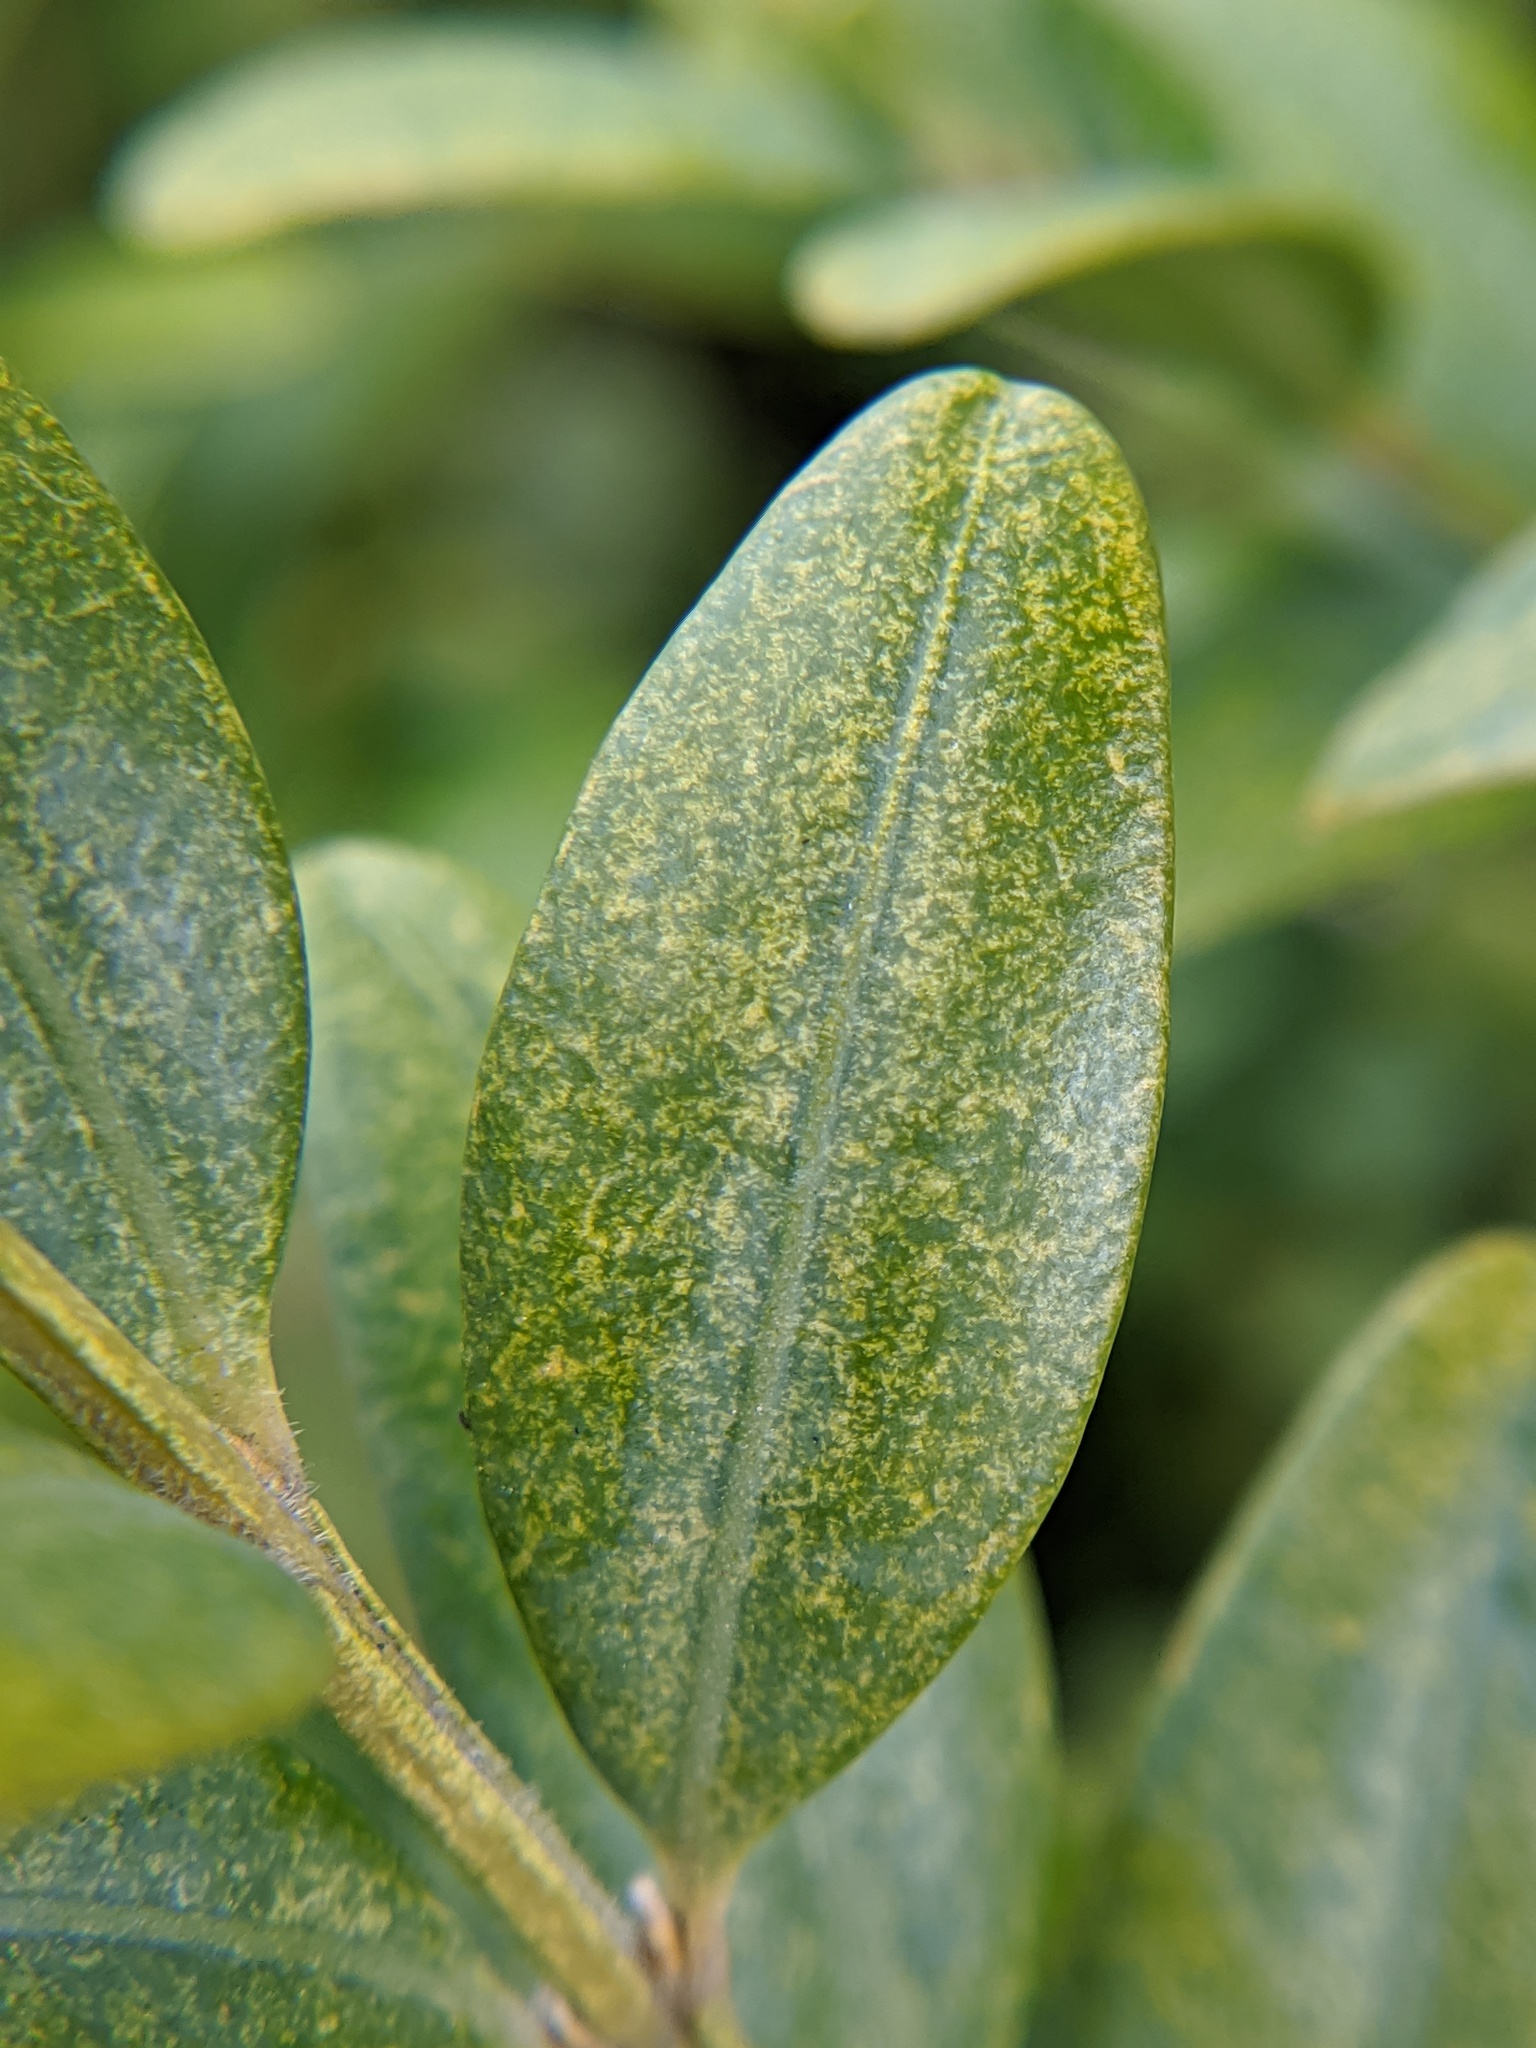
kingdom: Animalia
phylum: Arthropoda
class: Arachnida
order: Trombidiformes
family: Tetranychidae
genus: Eurytetranychus
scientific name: Eurytetranychus buxi
